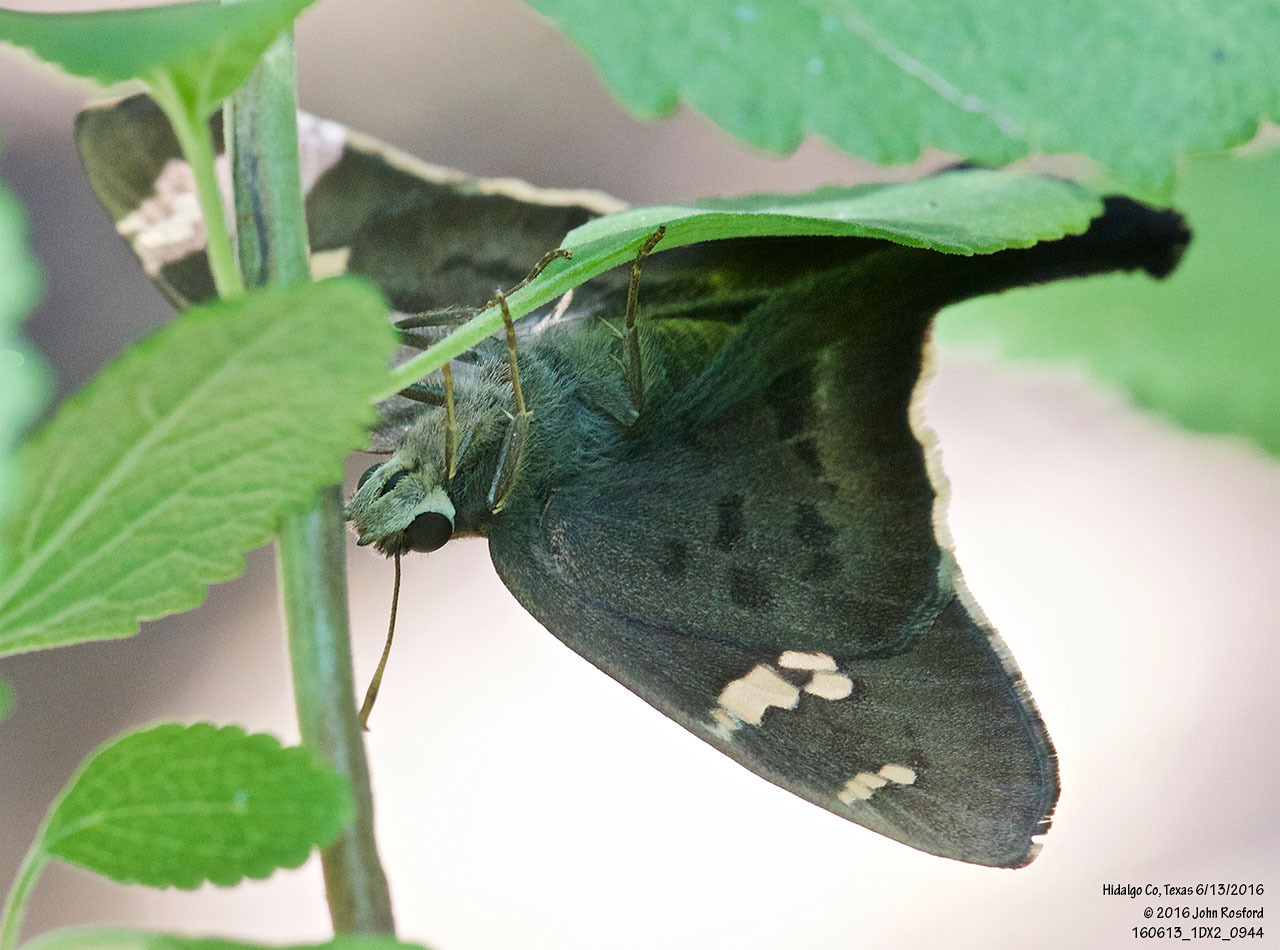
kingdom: Animalia
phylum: Arthropoda
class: Insecta
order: Lepidoptera
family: Hesperiidae
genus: Ectomis
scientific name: Ectomis
